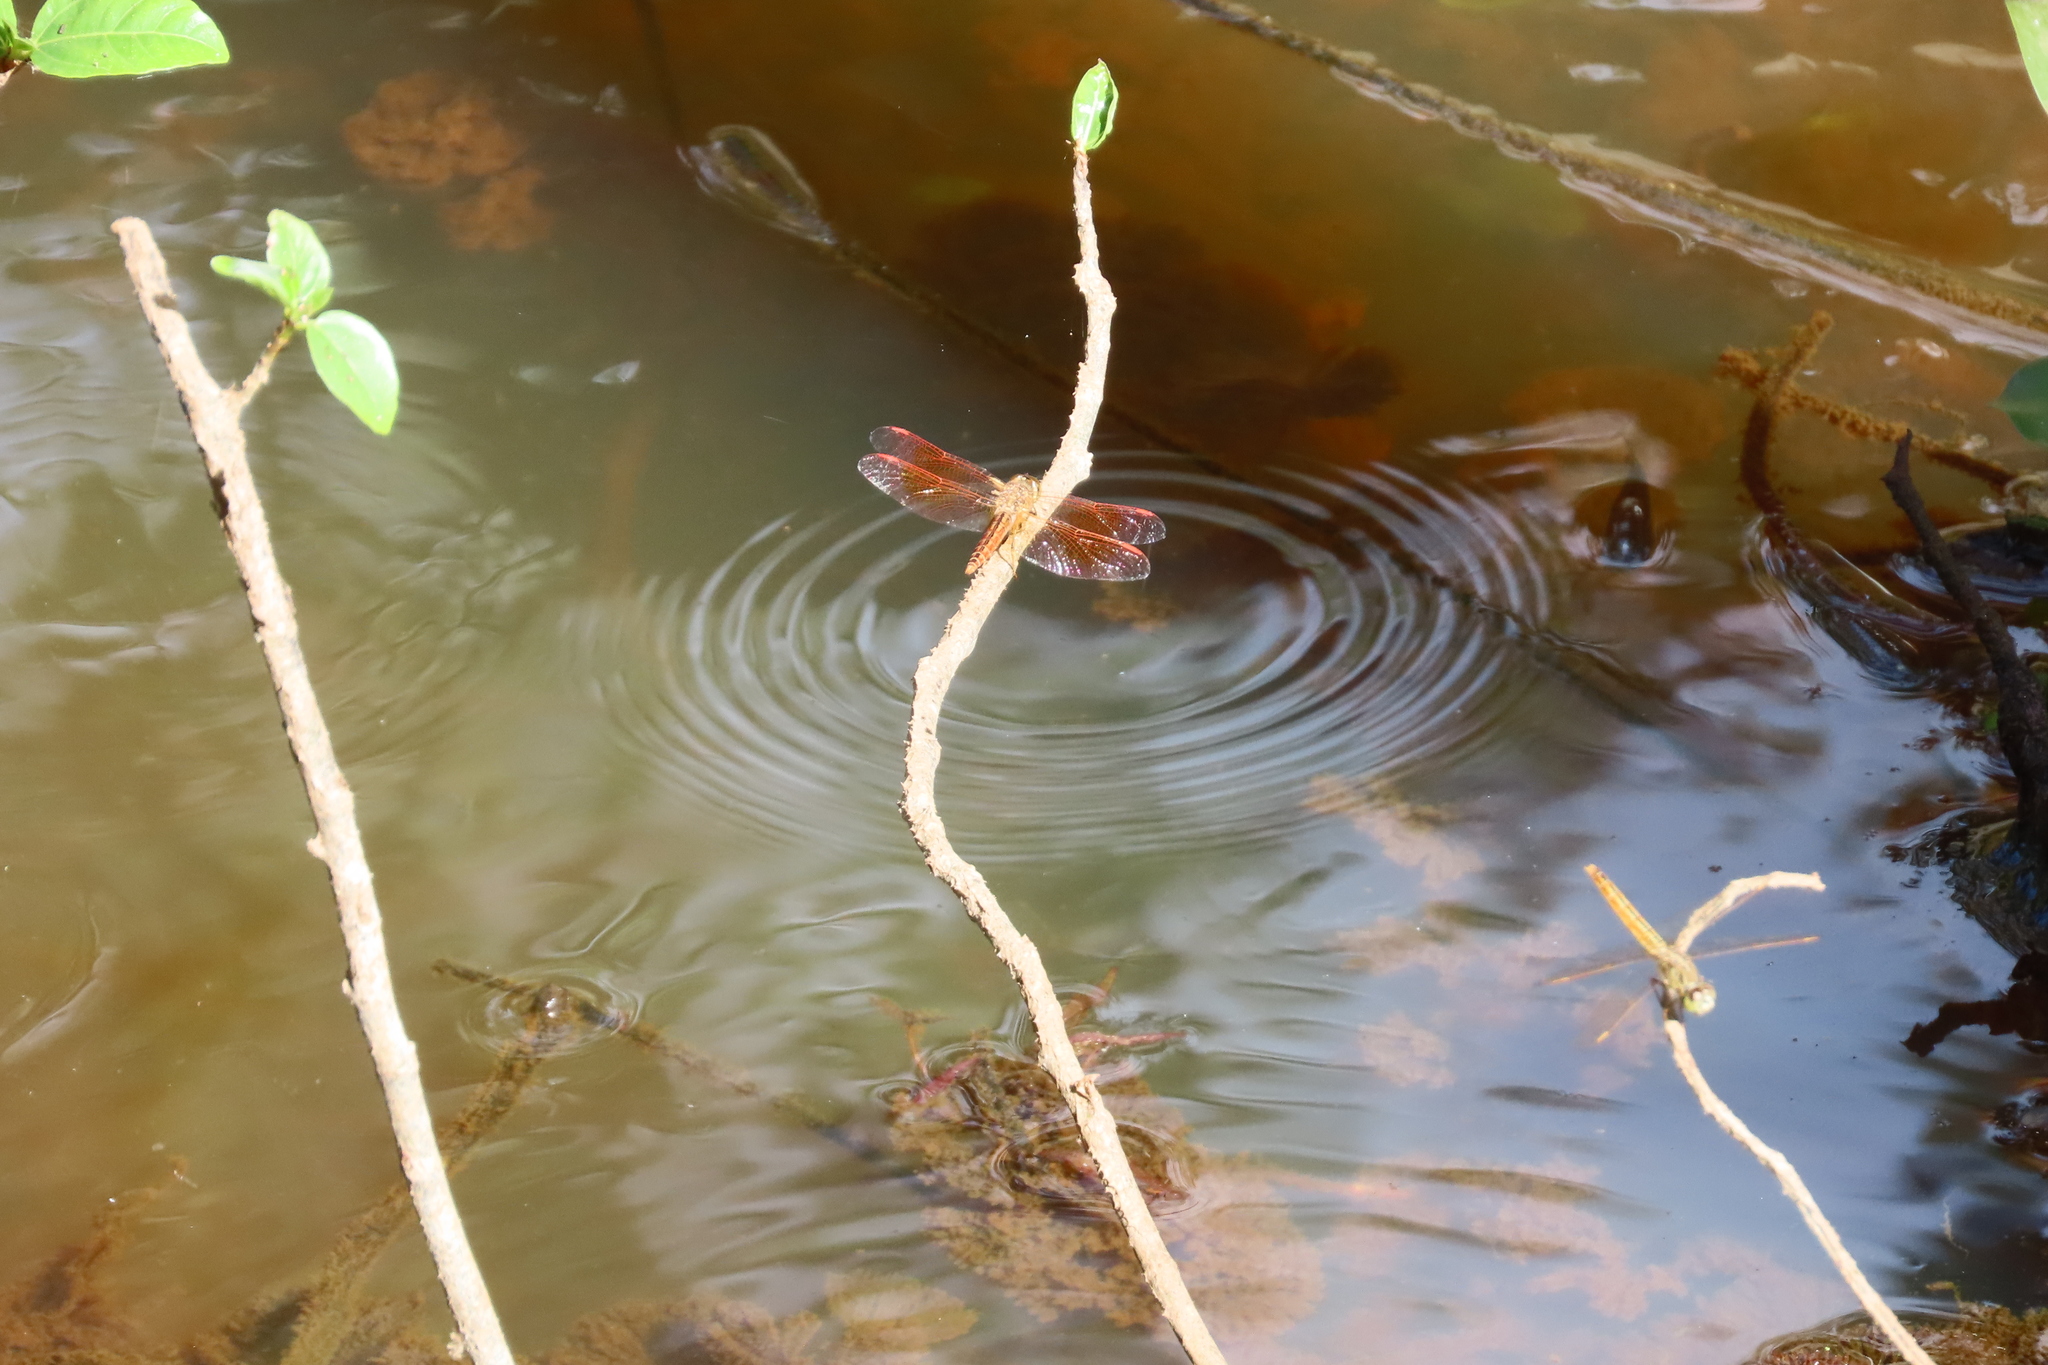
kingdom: Animalia
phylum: Arthropoda
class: Insecta
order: Odonata
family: Libellulidae
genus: Brachythemis
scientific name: Brachythemis contaminata
